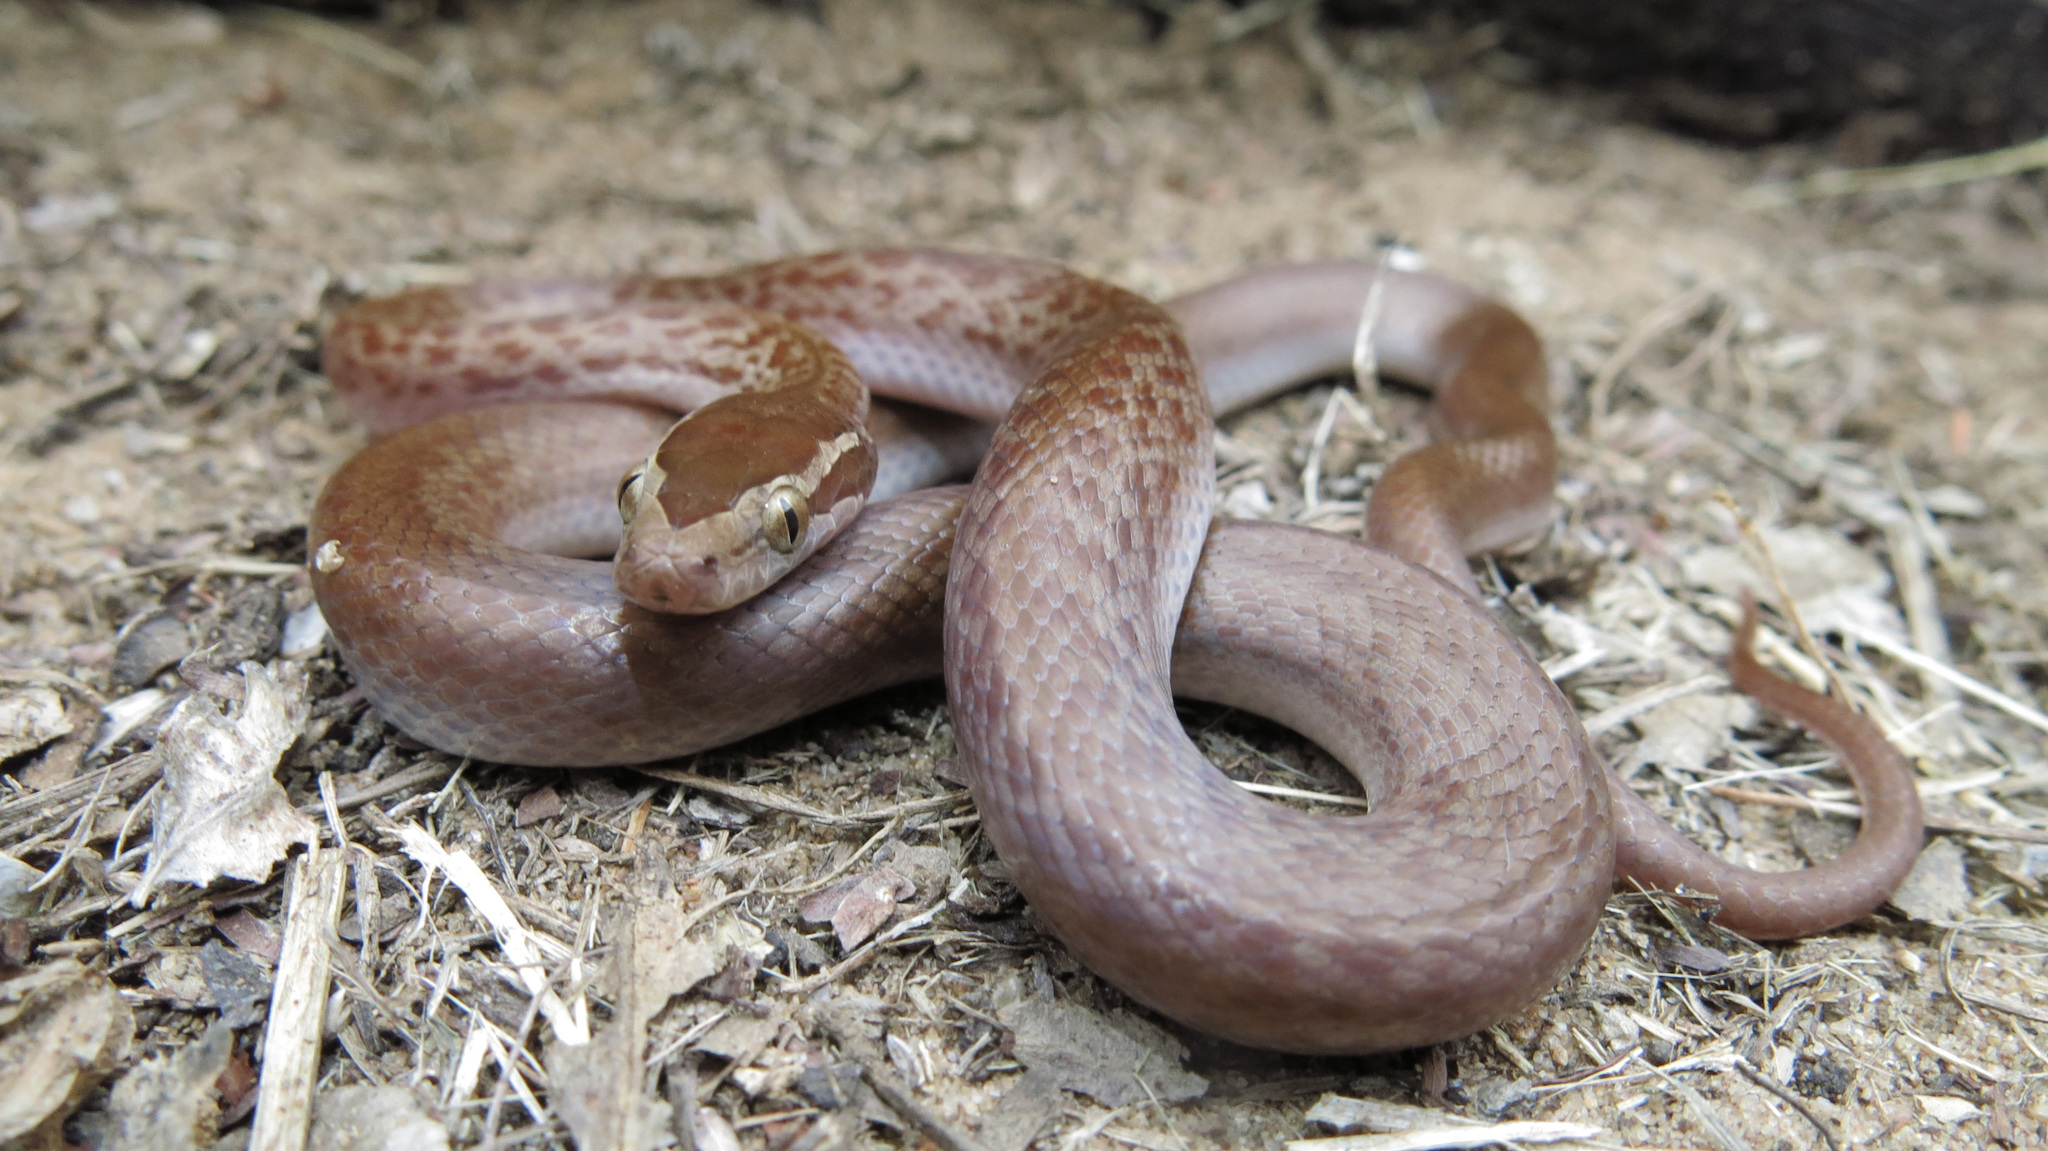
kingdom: Animalia
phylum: Chordata
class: Squamata
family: Lamprophiidae
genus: Boaedon
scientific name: Boaedon capensis
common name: Brown house snake
